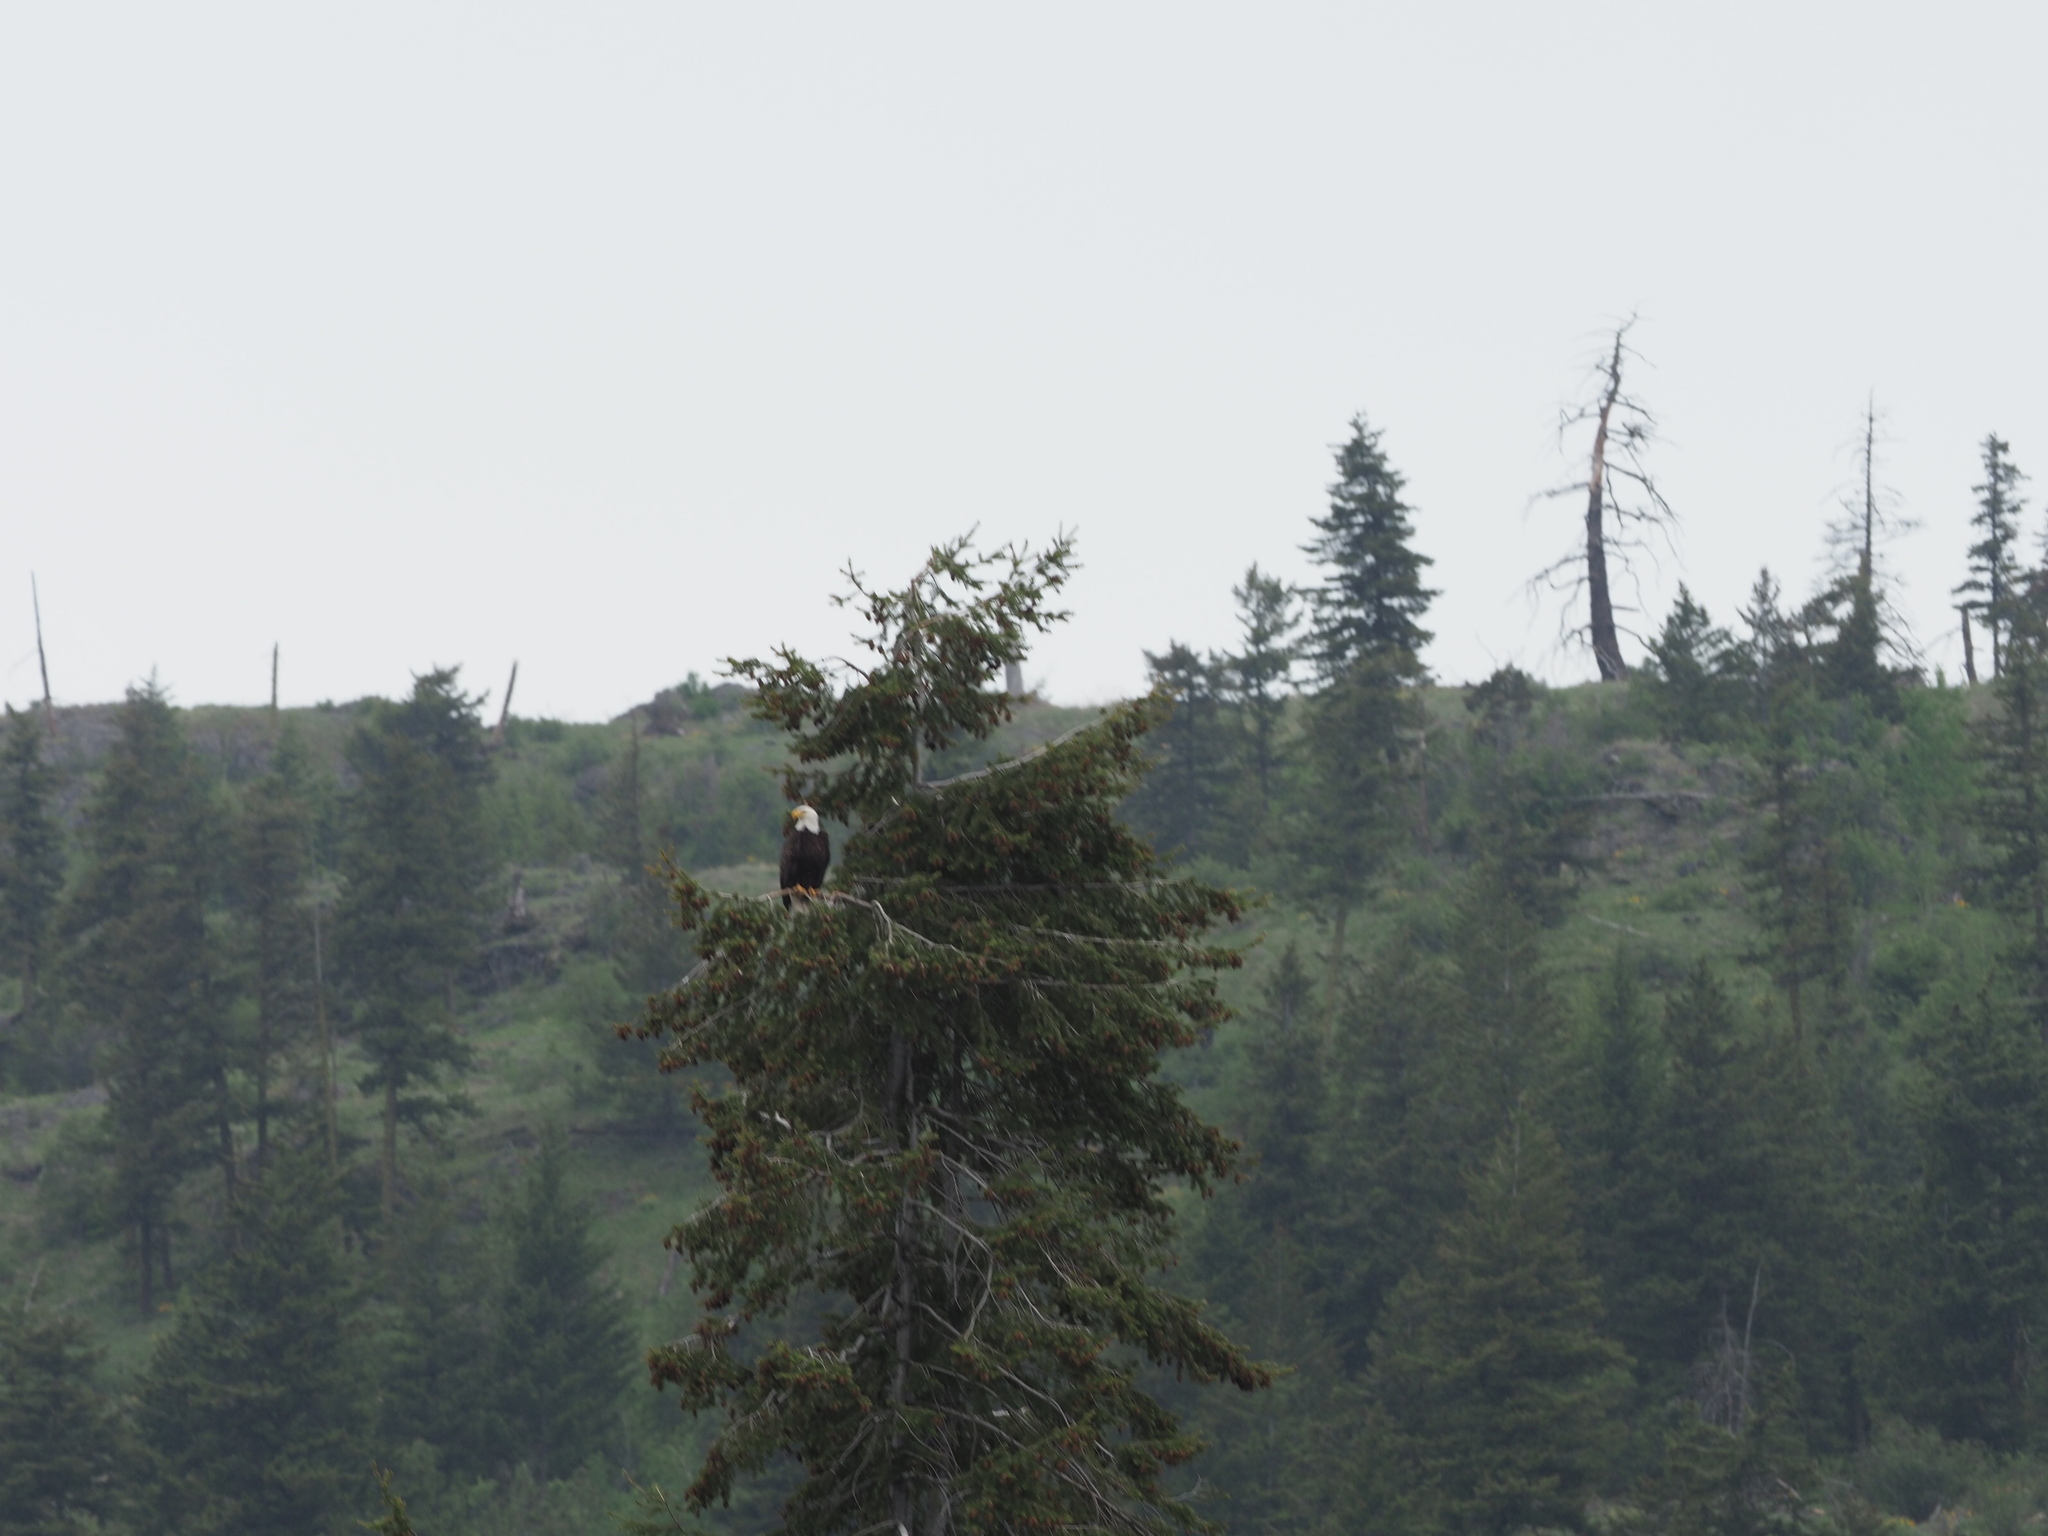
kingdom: Animalia
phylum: Chordata
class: Aves
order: Accipitriformes
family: Accipitridae
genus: Haliaeetus
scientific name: Haliaeetus leucocephalus
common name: Bald eagle
